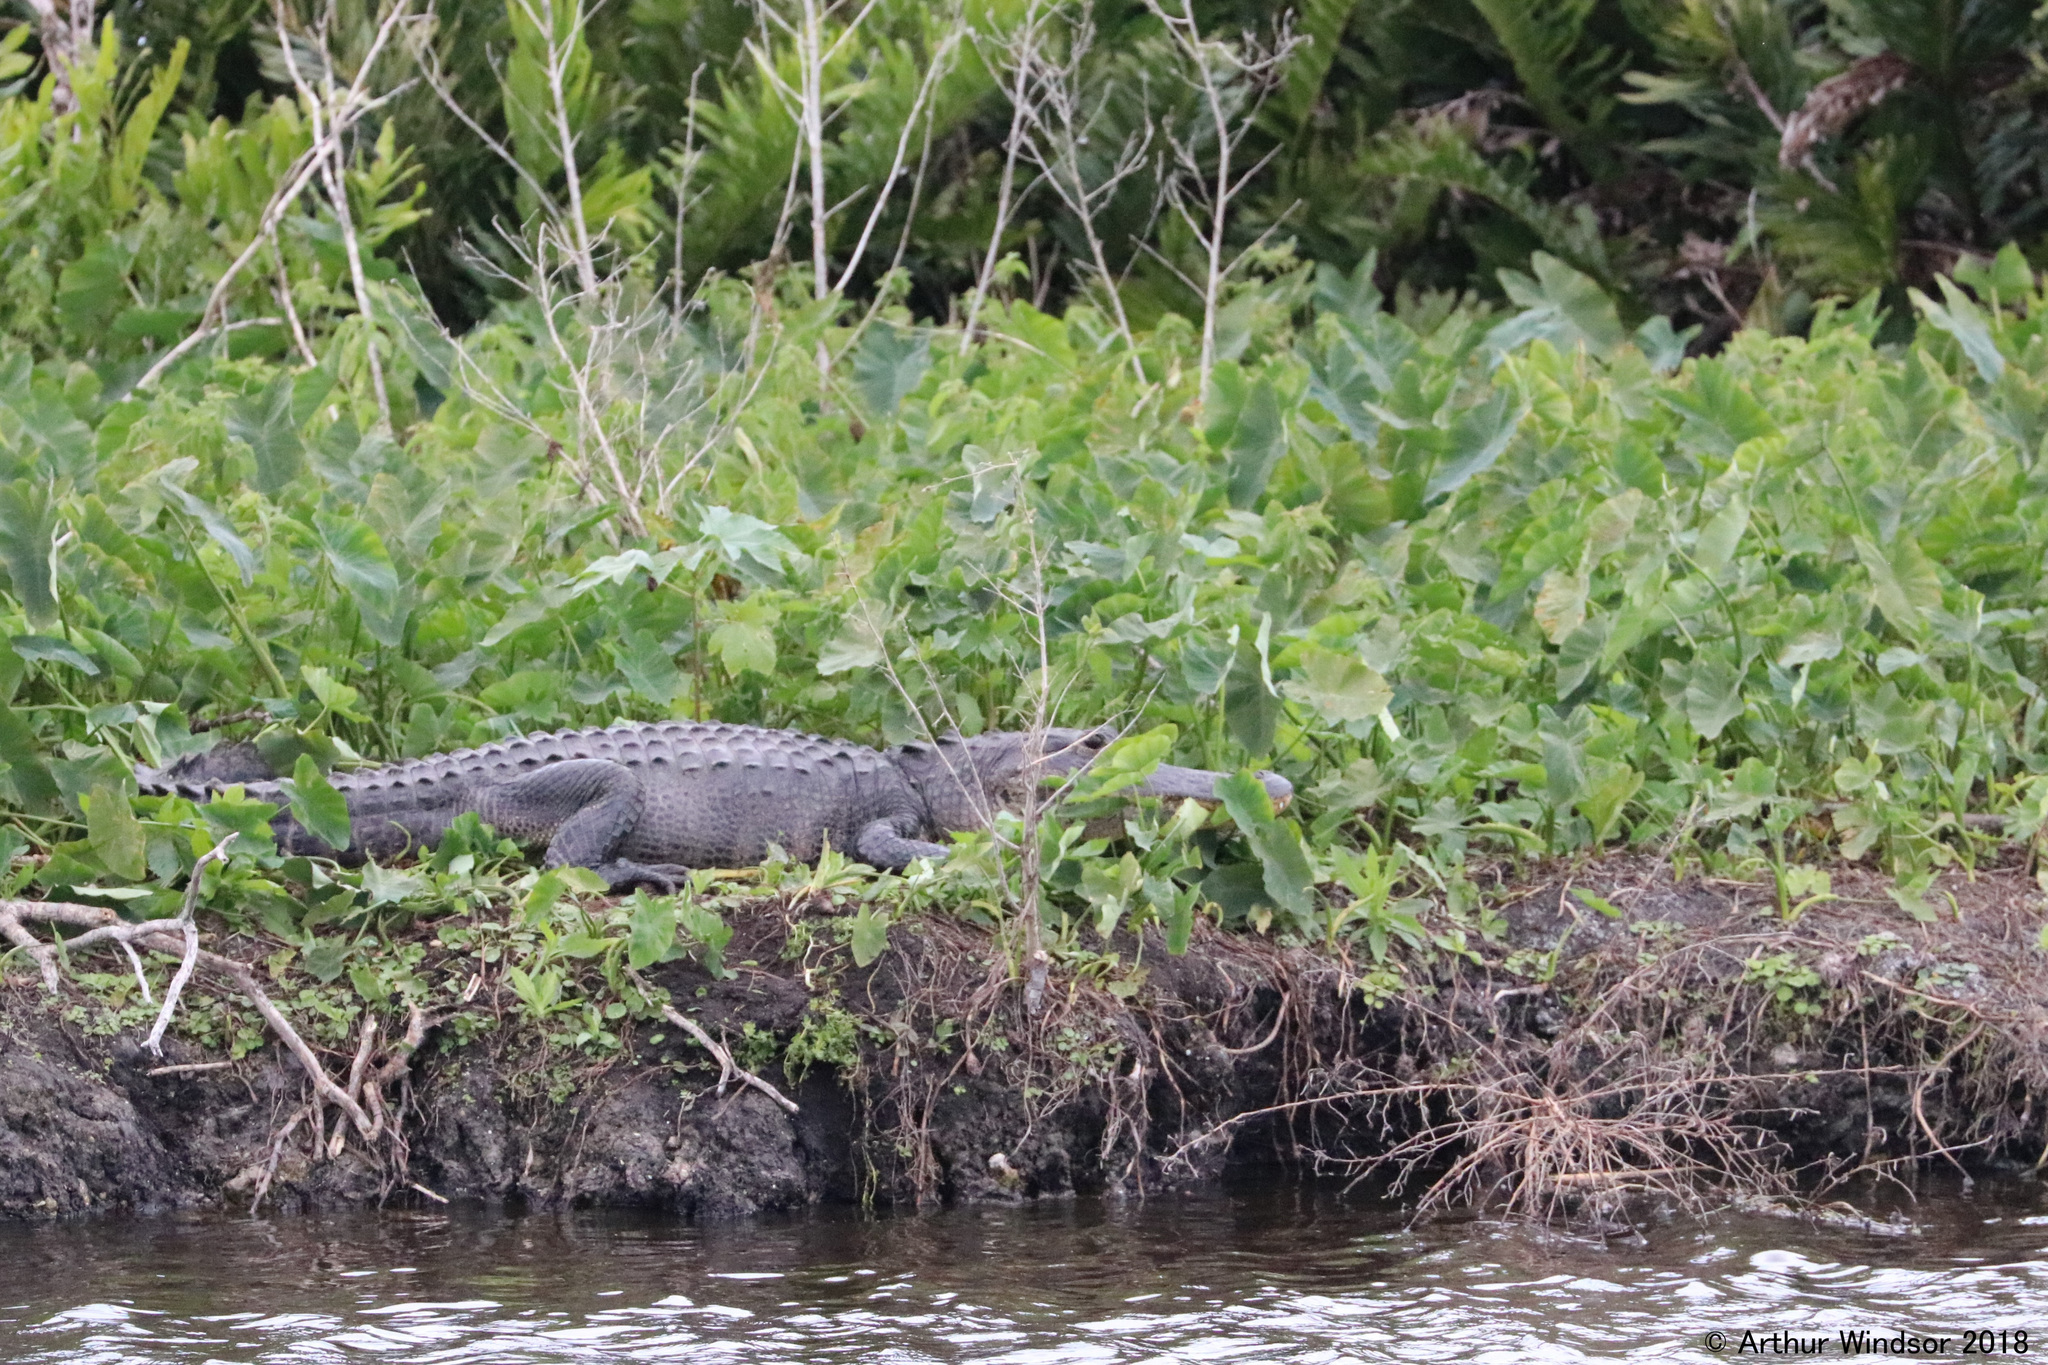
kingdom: Animalia
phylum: Chordata
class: Crocodylia
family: Alligatoridae
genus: Alligator
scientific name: Alligator mississippiensis
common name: American alligator
